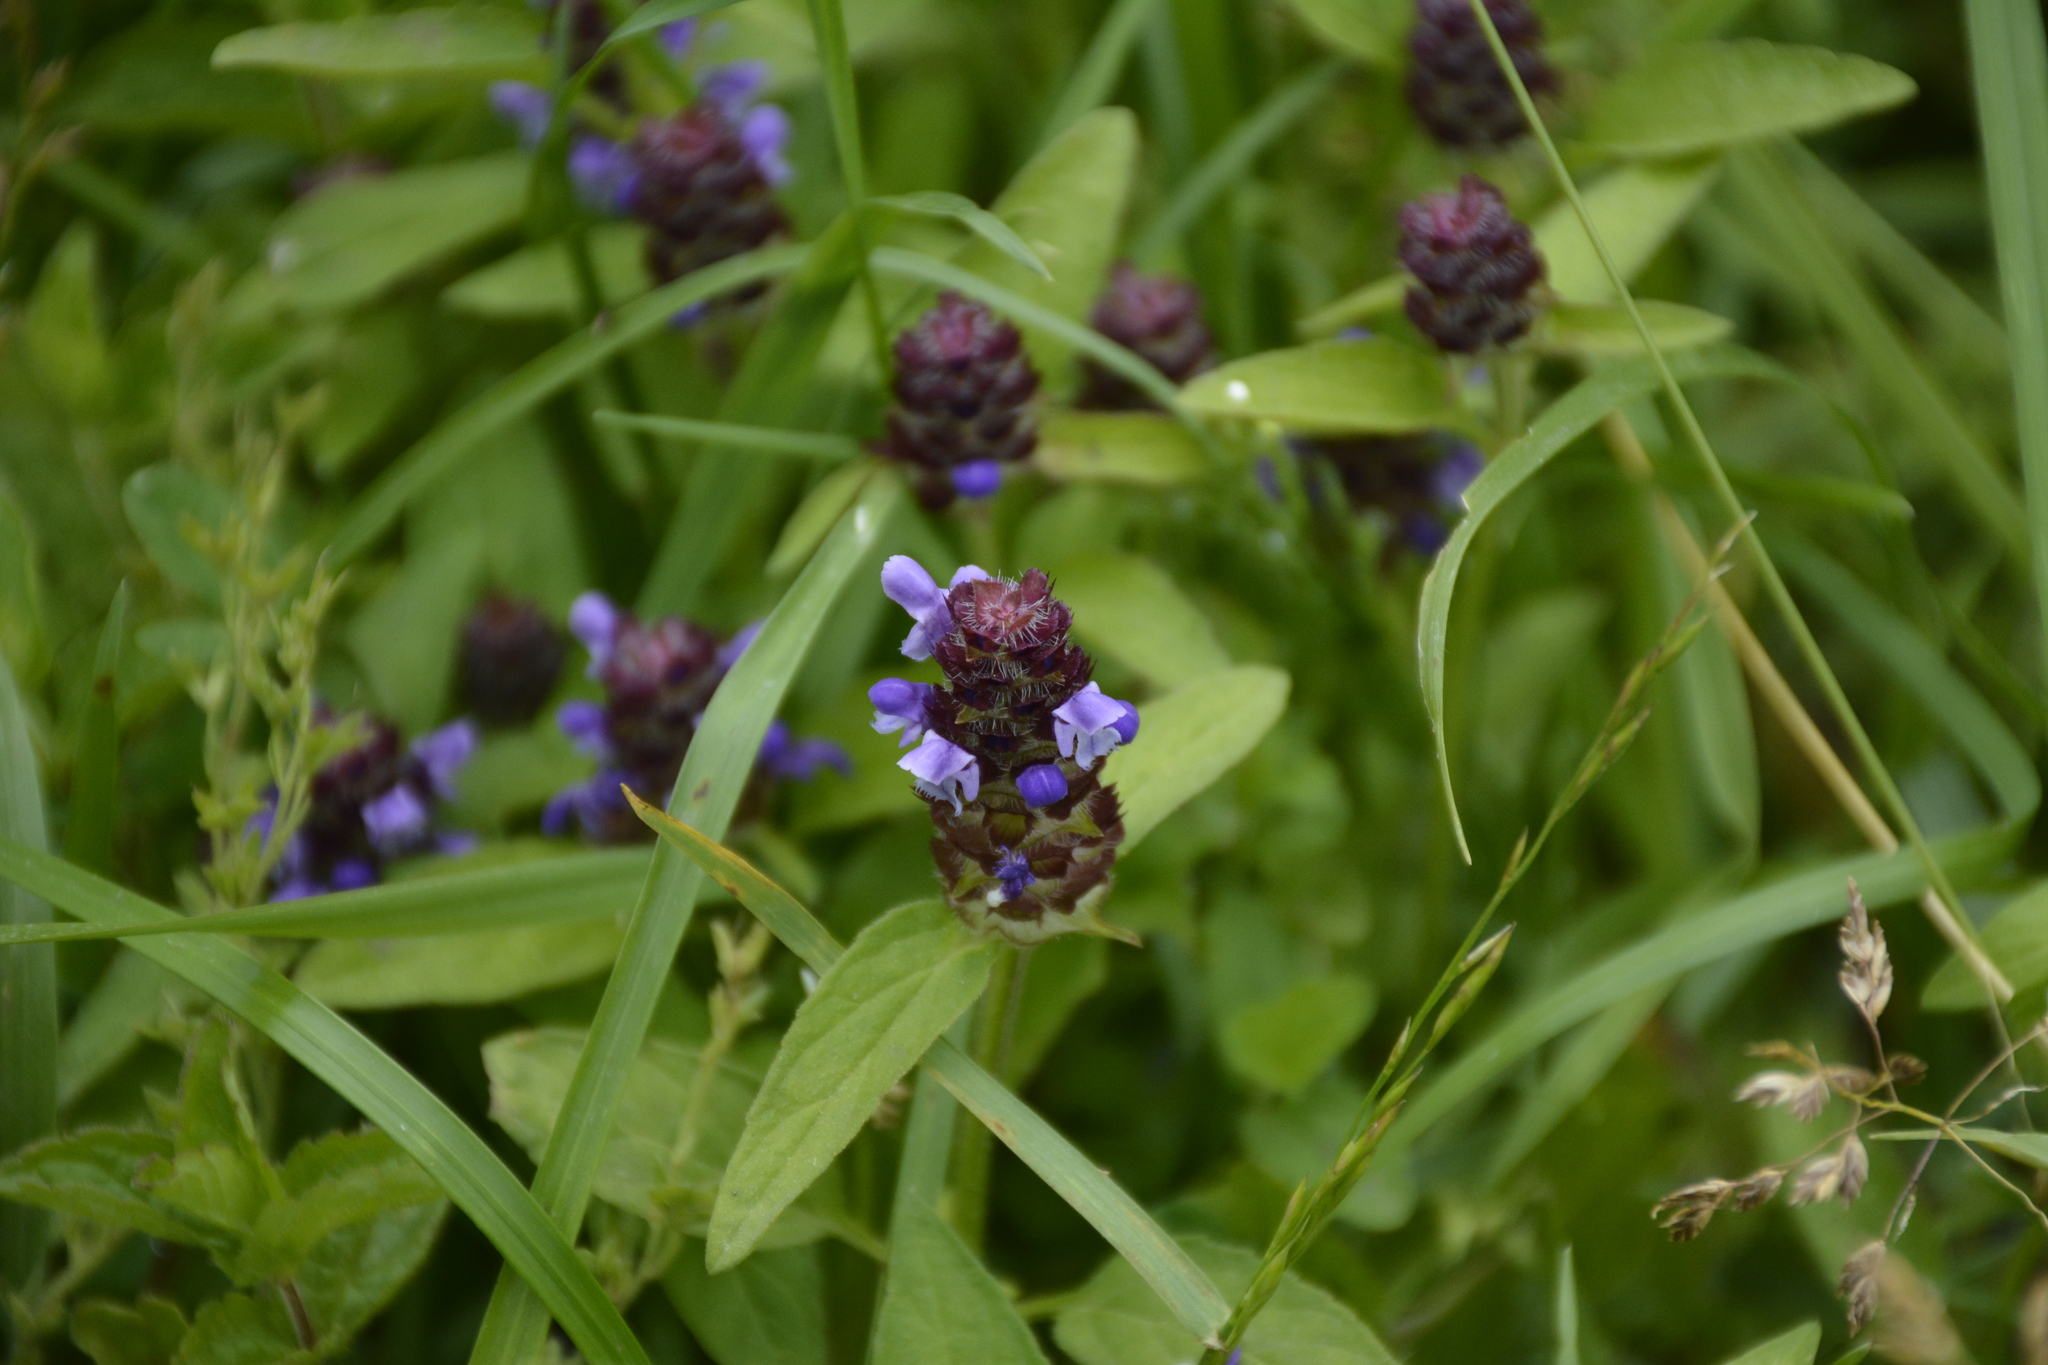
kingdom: Plantae
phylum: Tracheophyta
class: Magnoliopsida
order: Lamiales
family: Lamiaceae
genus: Prunella
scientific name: Prunella vulgaris
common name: Heal-all
